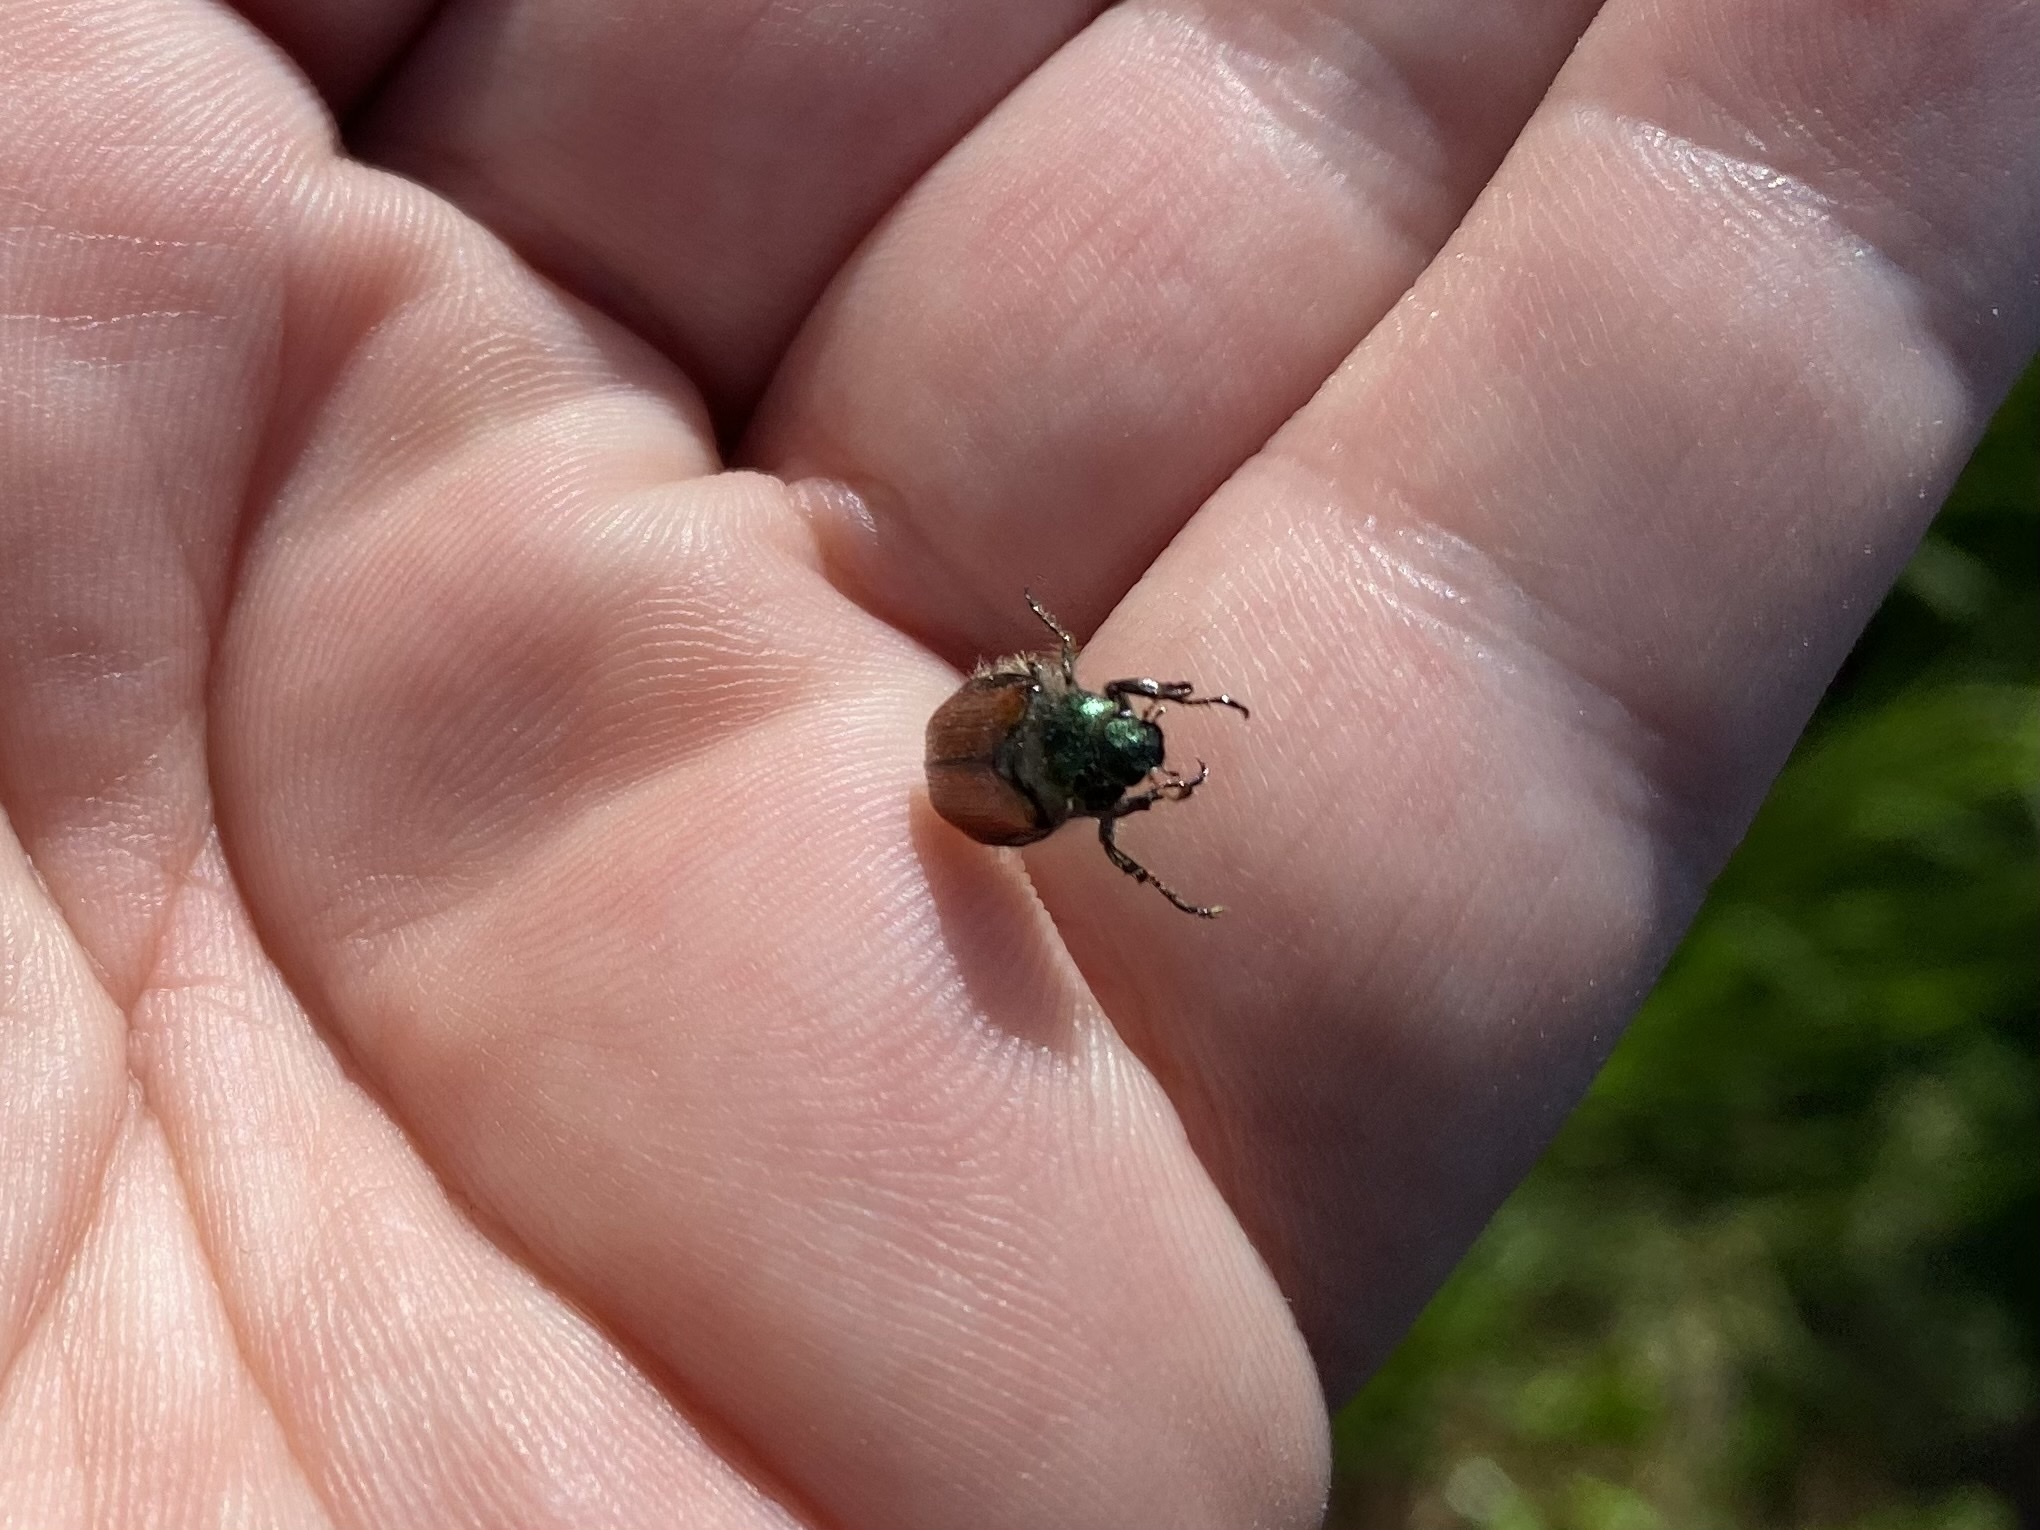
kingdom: Animalia
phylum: Arthropoda
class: Insecta
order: Coleoptera
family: Scarabaeidae
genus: Phyllopertha
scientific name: Phyllopertha horticola
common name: Garden chafer
